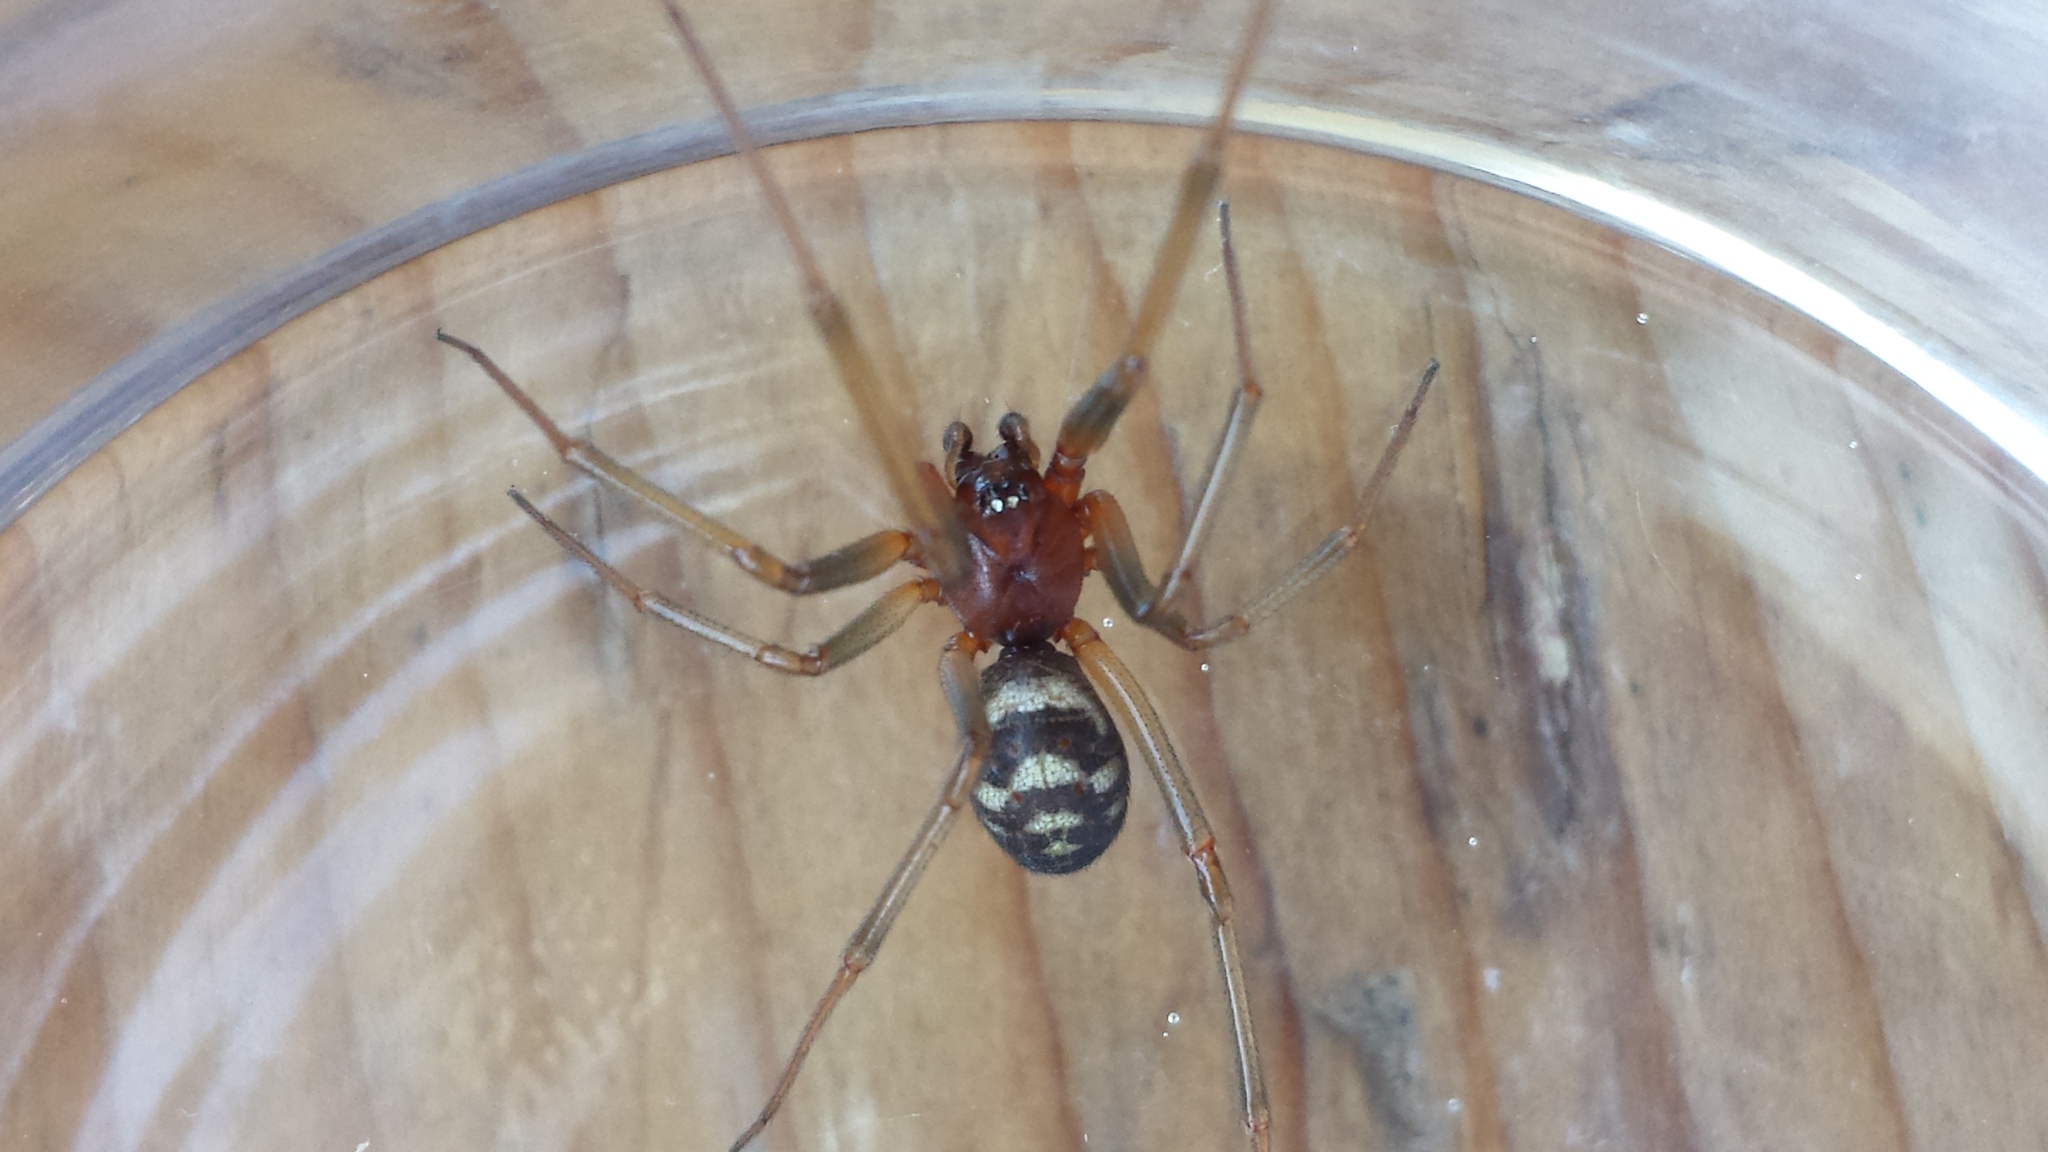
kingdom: Animalia
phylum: Arthropoda
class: Arachnida
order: Araneae
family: Theridiidae
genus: Steatoda
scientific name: Steatoda grossa
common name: False black widow
